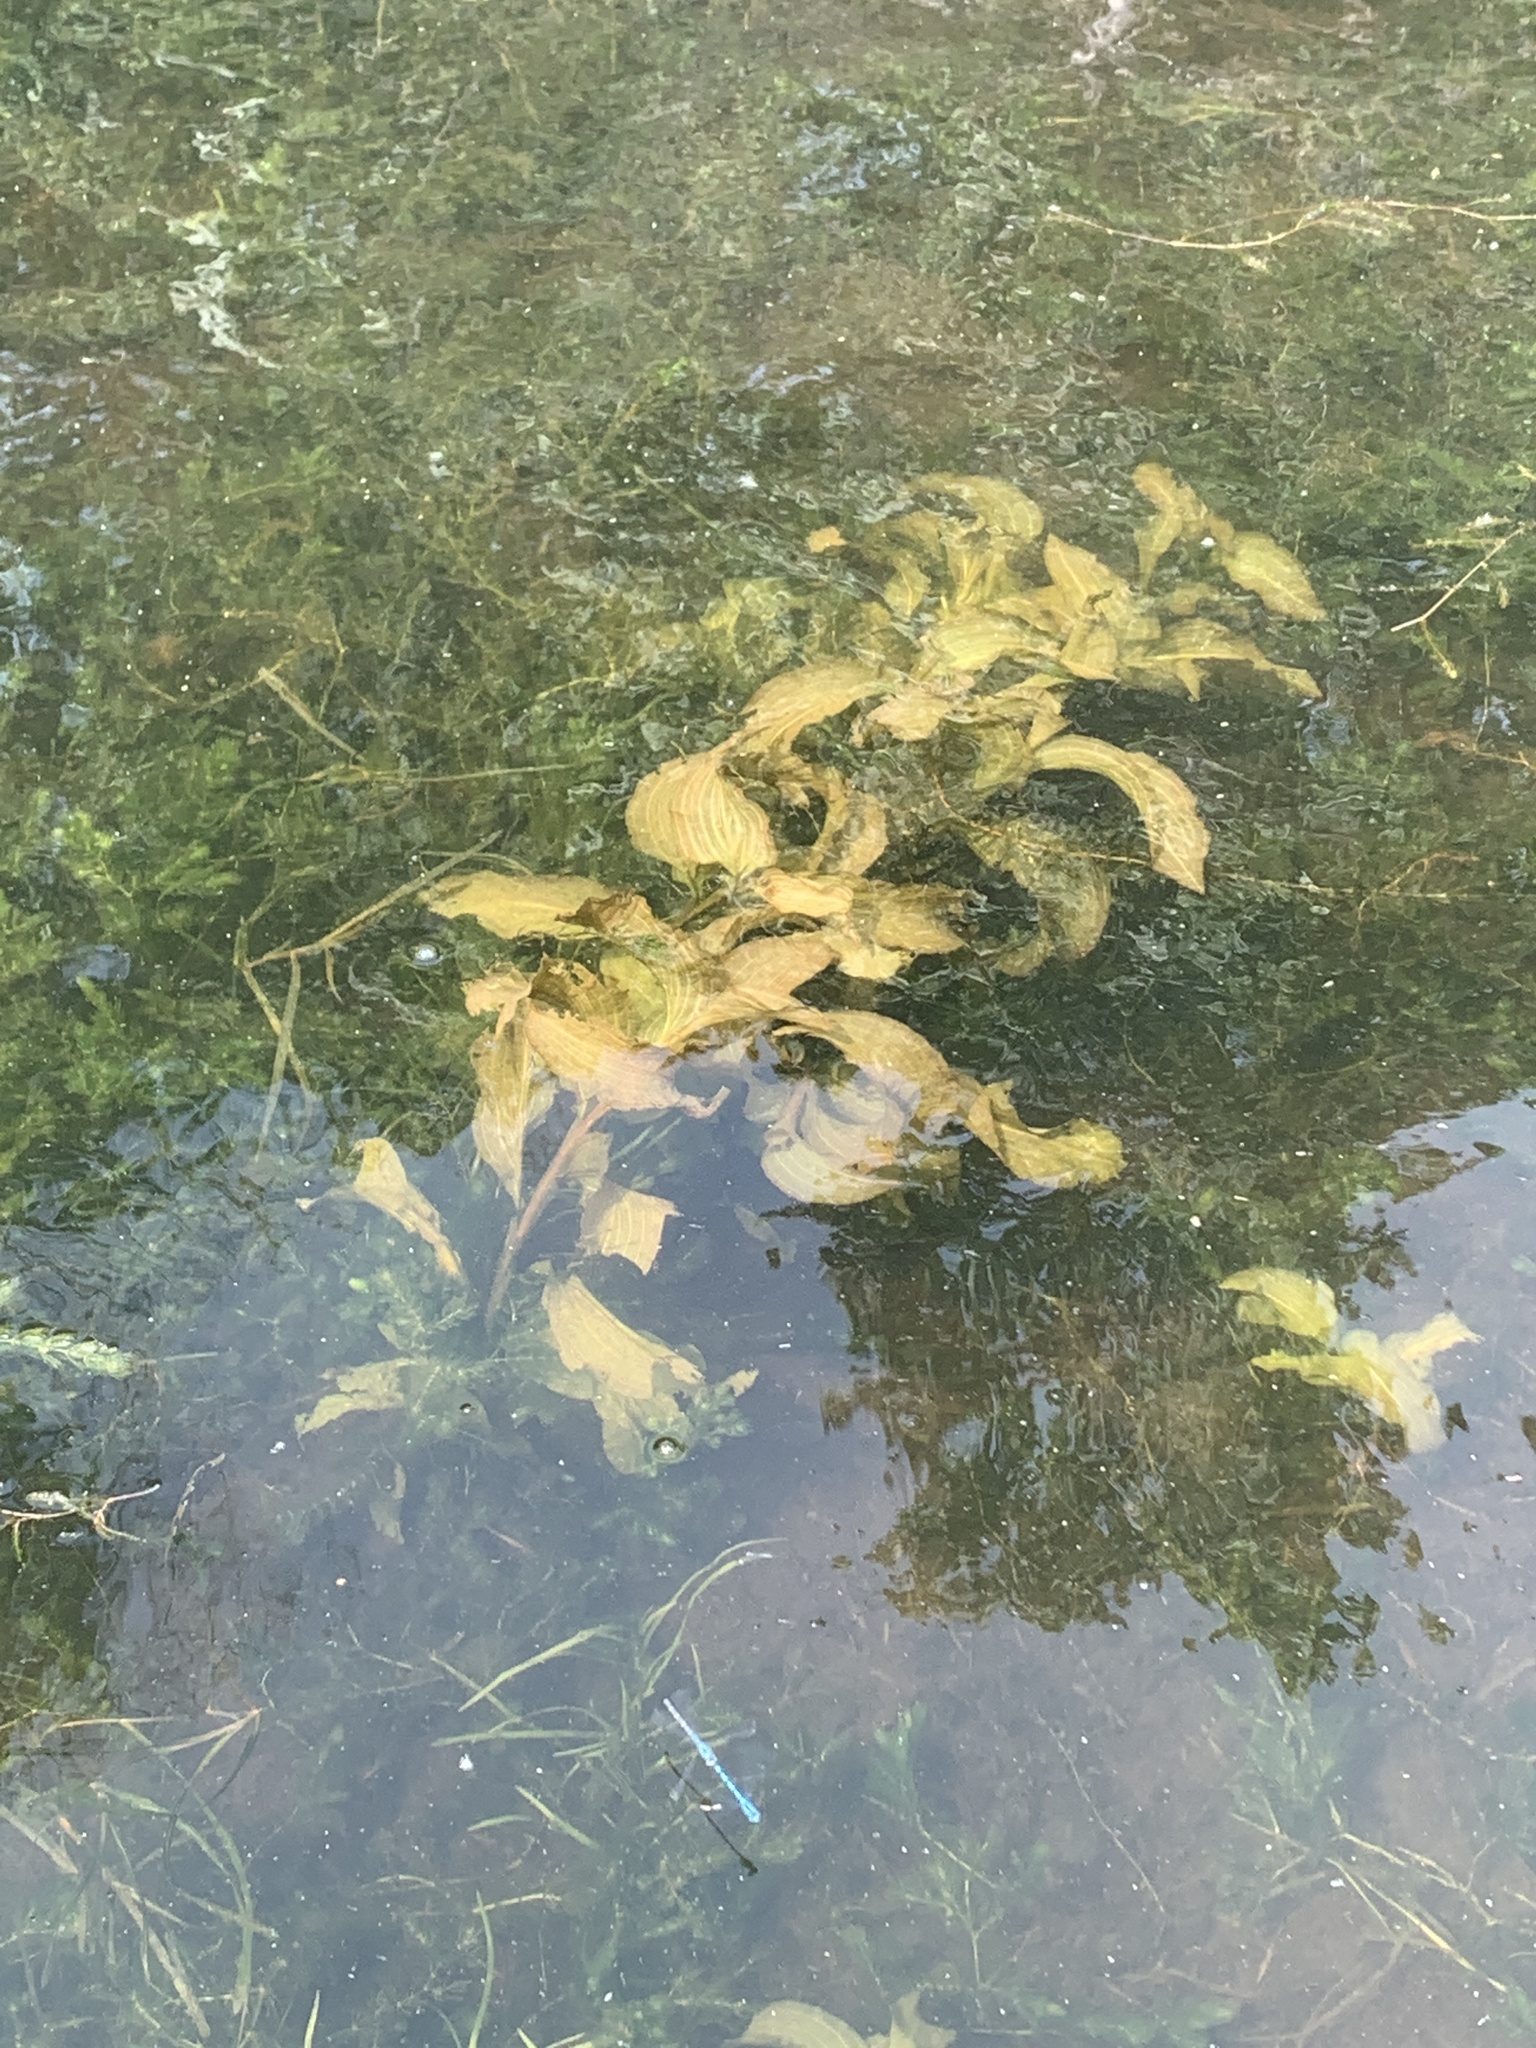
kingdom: Plantae
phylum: Tracheophyta
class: Liliopsida
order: Alismatales
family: Potamogetonaceae
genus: Potamogeton
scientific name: Potamogeton amplifolius
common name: Broad-leaved pondweed
